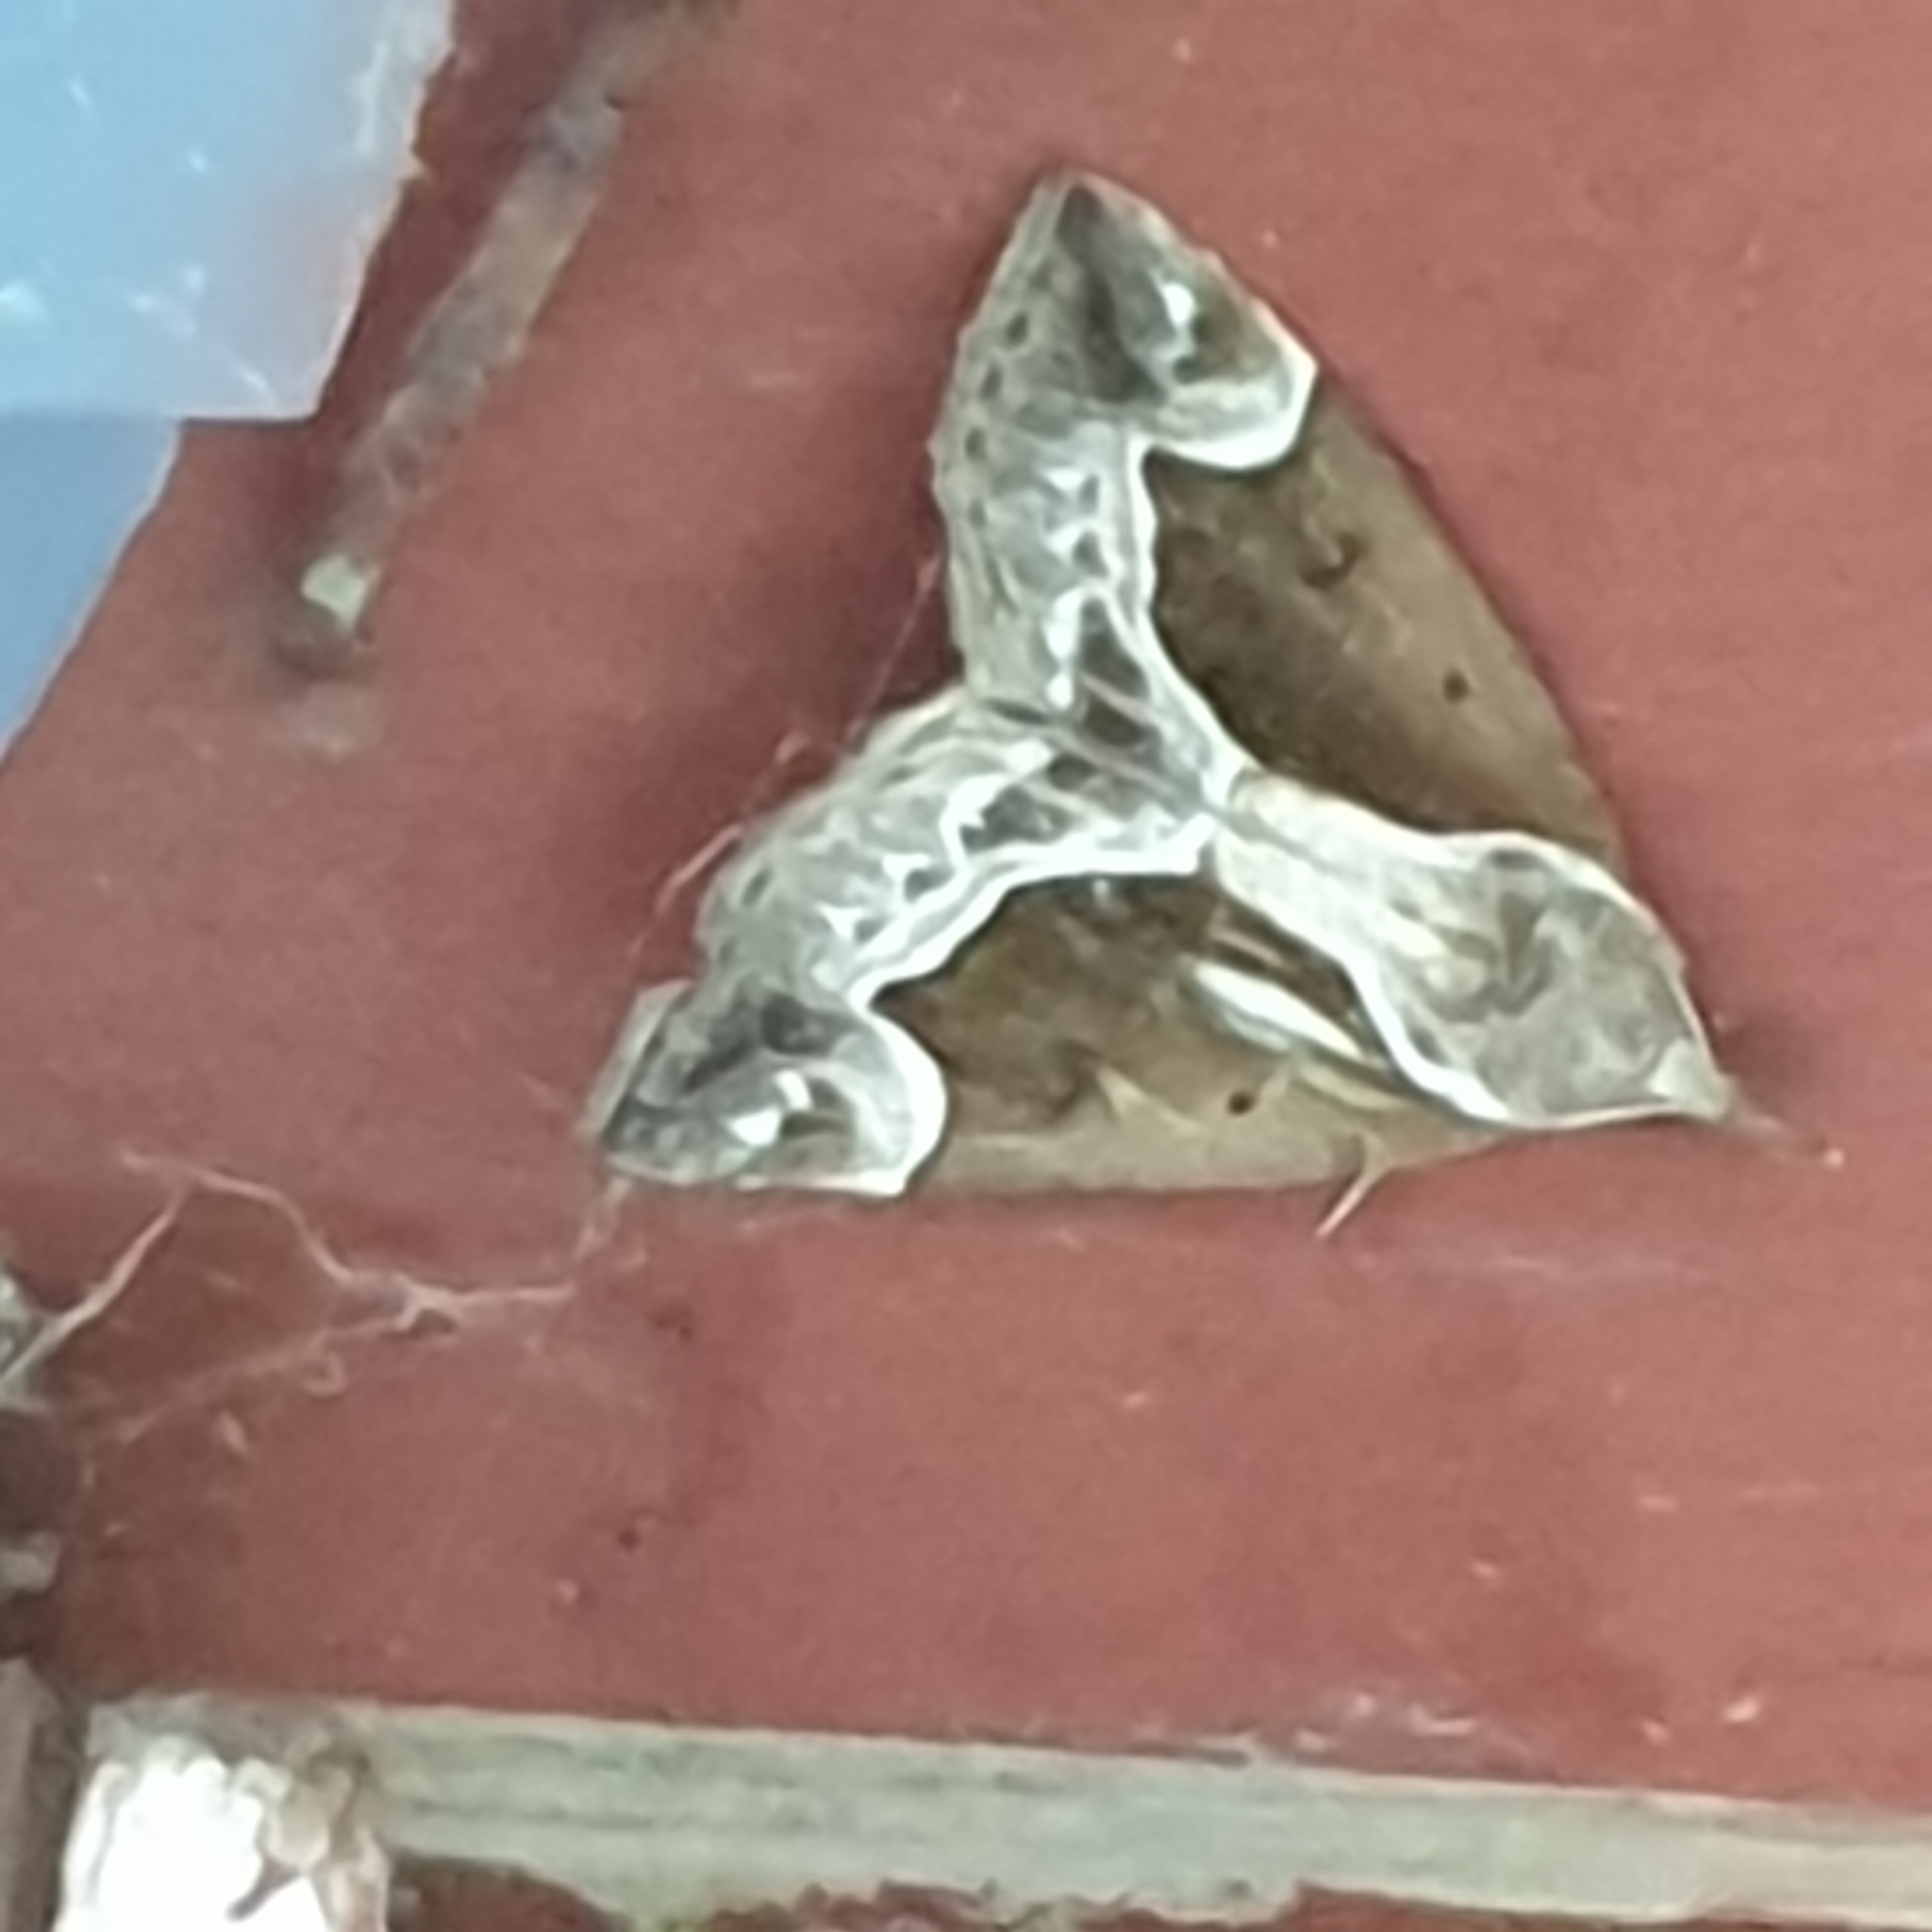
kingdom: Animalia
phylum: Arthropoda
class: Insecta
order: Lepidoptera
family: Erebidae
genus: Hypena
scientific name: Hypena crassalis
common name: Beautiful snout
